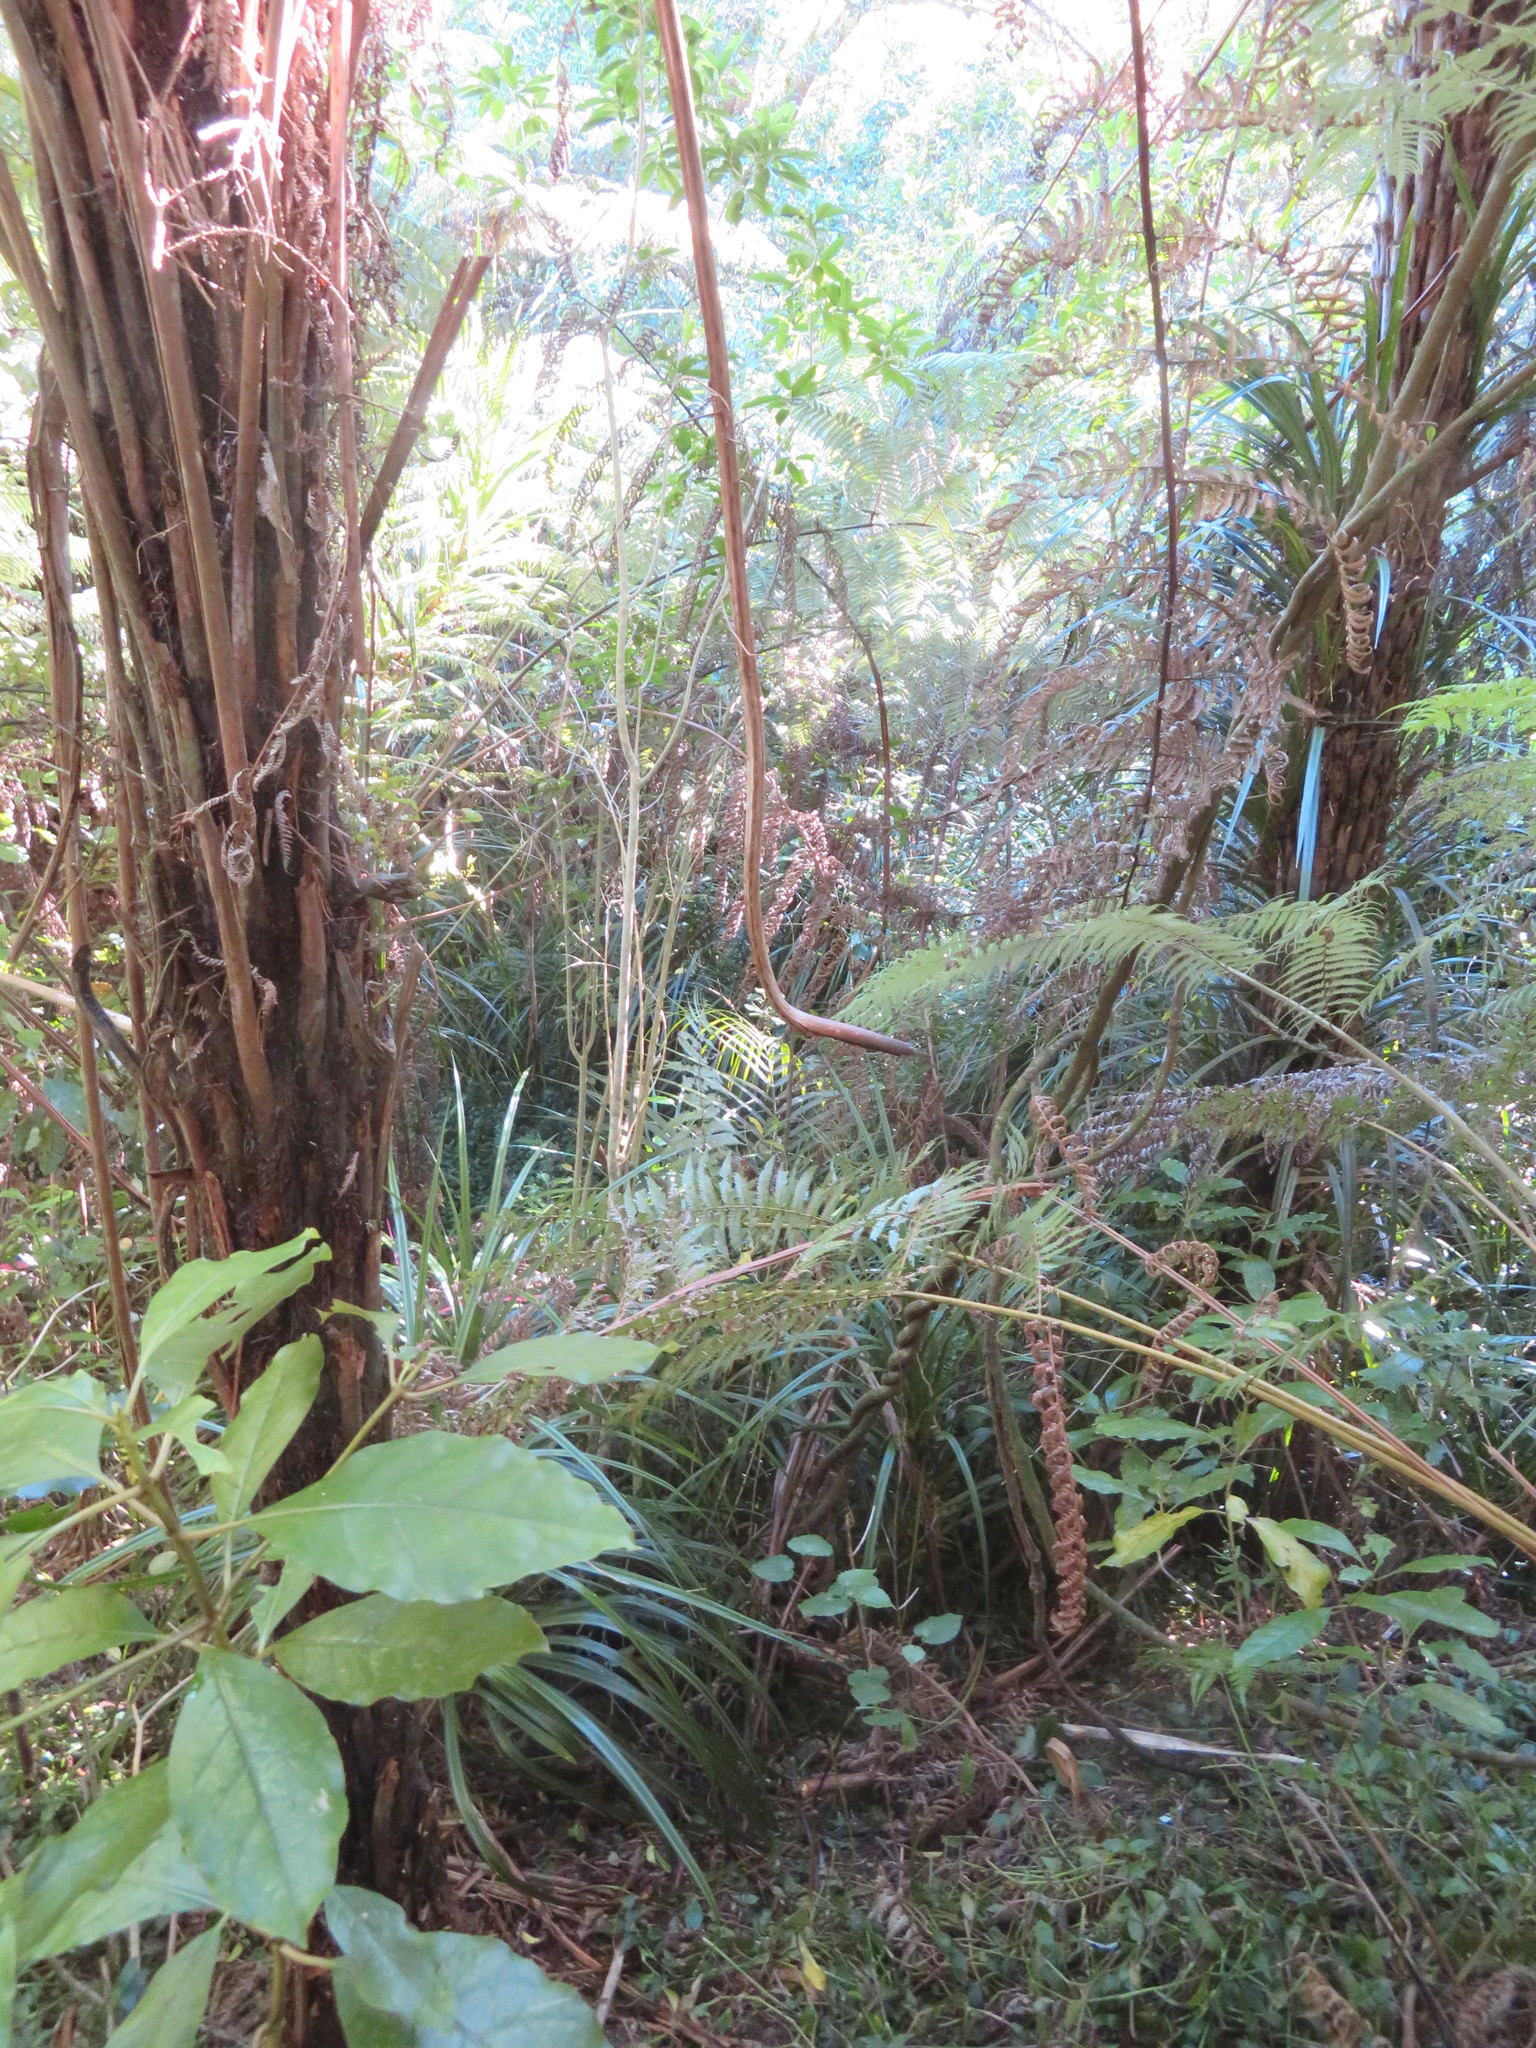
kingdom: Plantae
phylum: Tracheophyta
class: Magnoliopsida
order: Gentianales
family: Rubiaceae
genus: Coprosma
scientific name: Coprosma autumnalis
